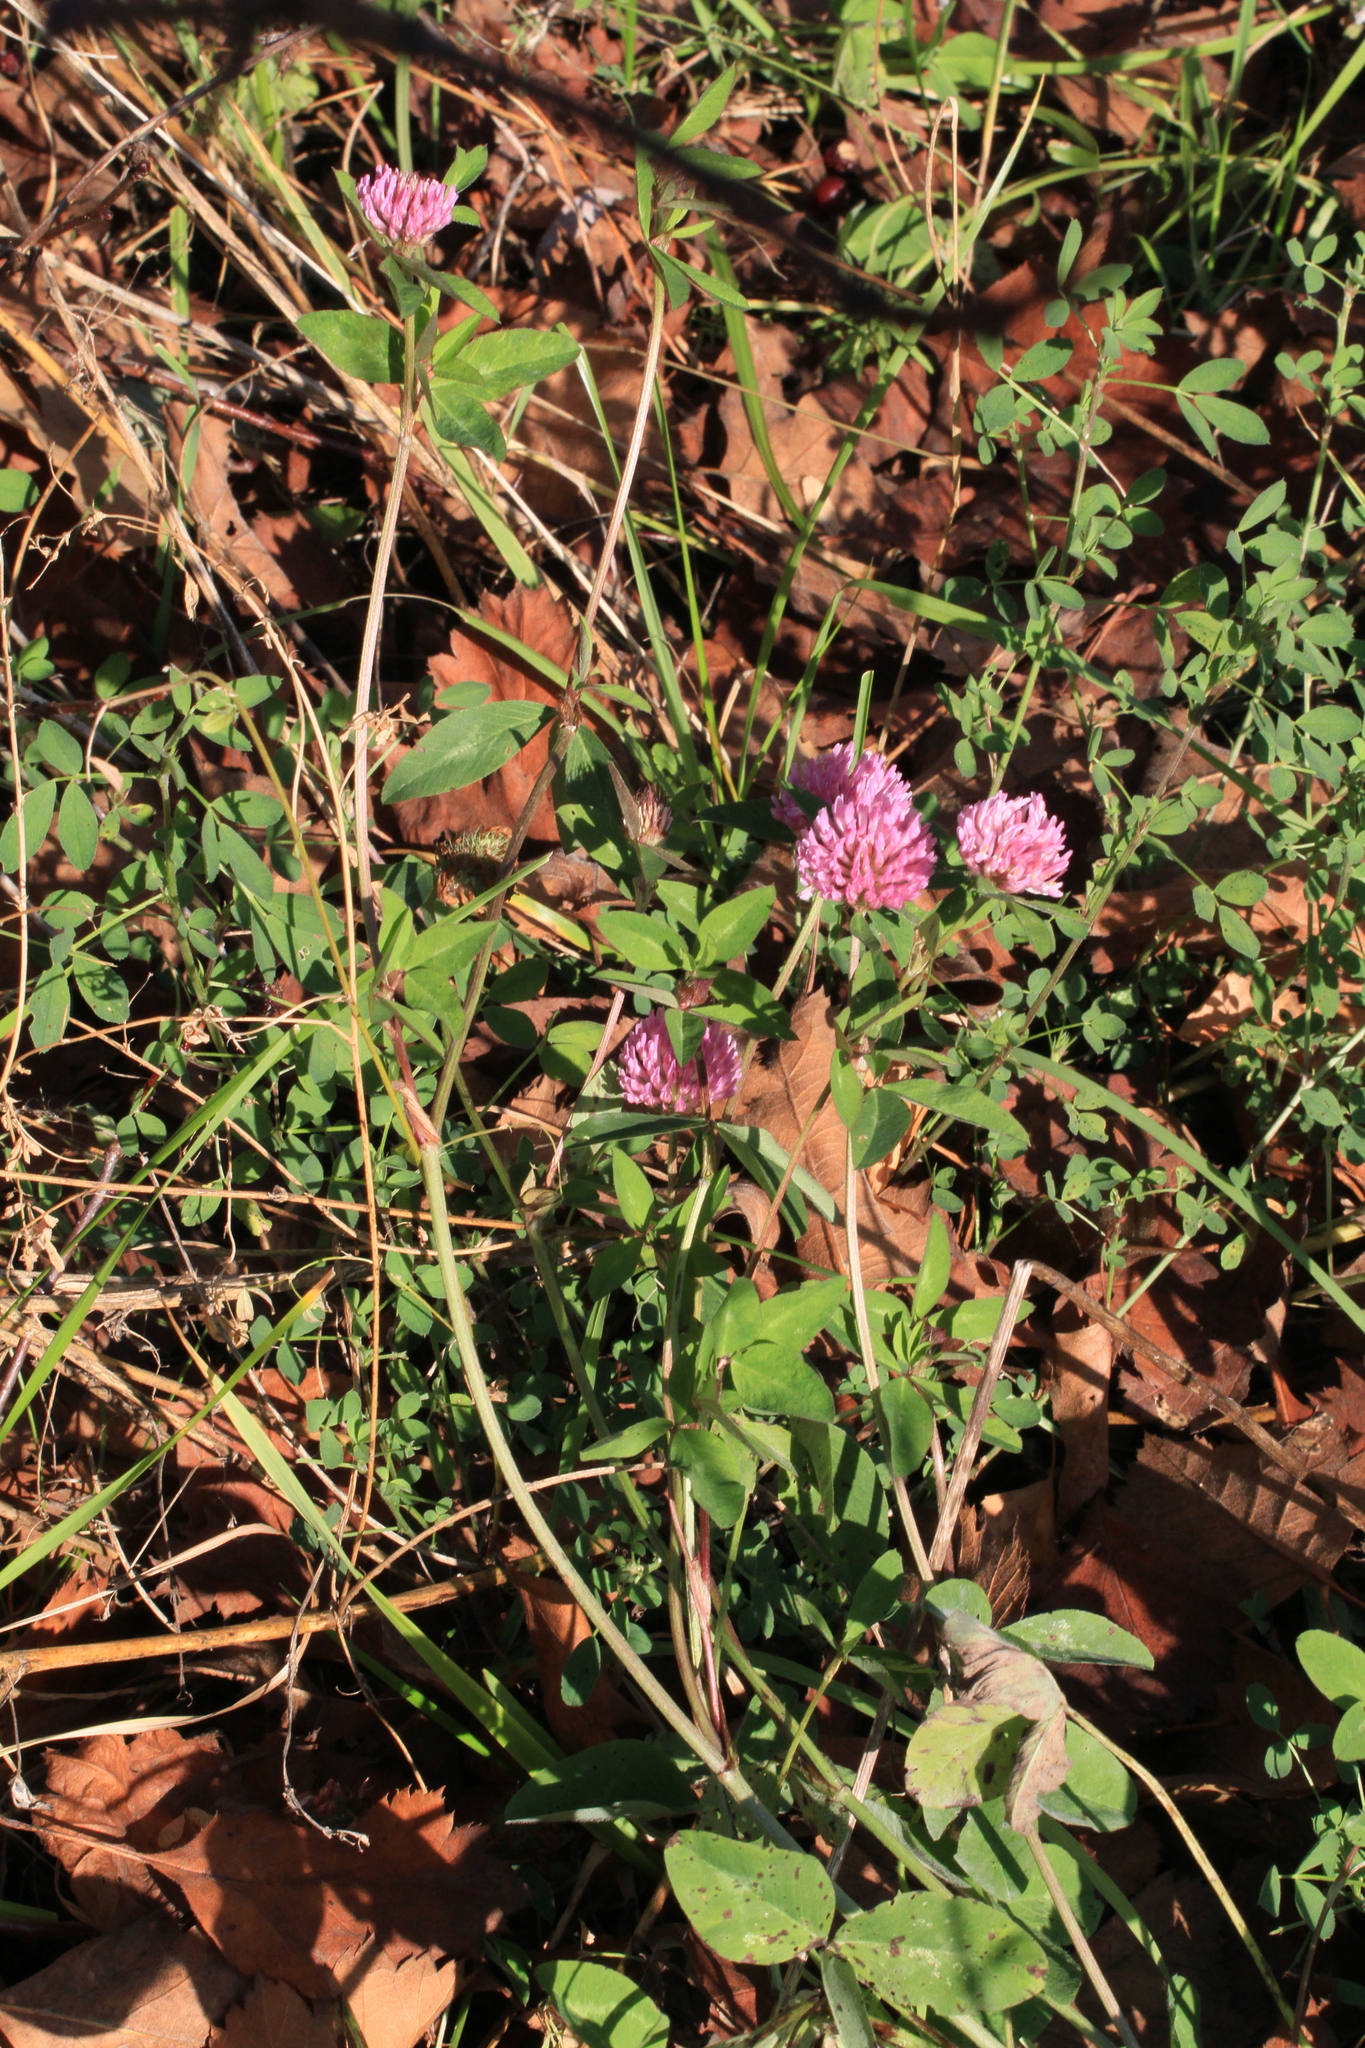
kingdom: Plantae
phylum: Tracheophyta
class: Magnoliopsida
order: Fabales
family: Fabaceae
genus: Trifolium
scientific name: Trifolium pratense
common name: Red clover
